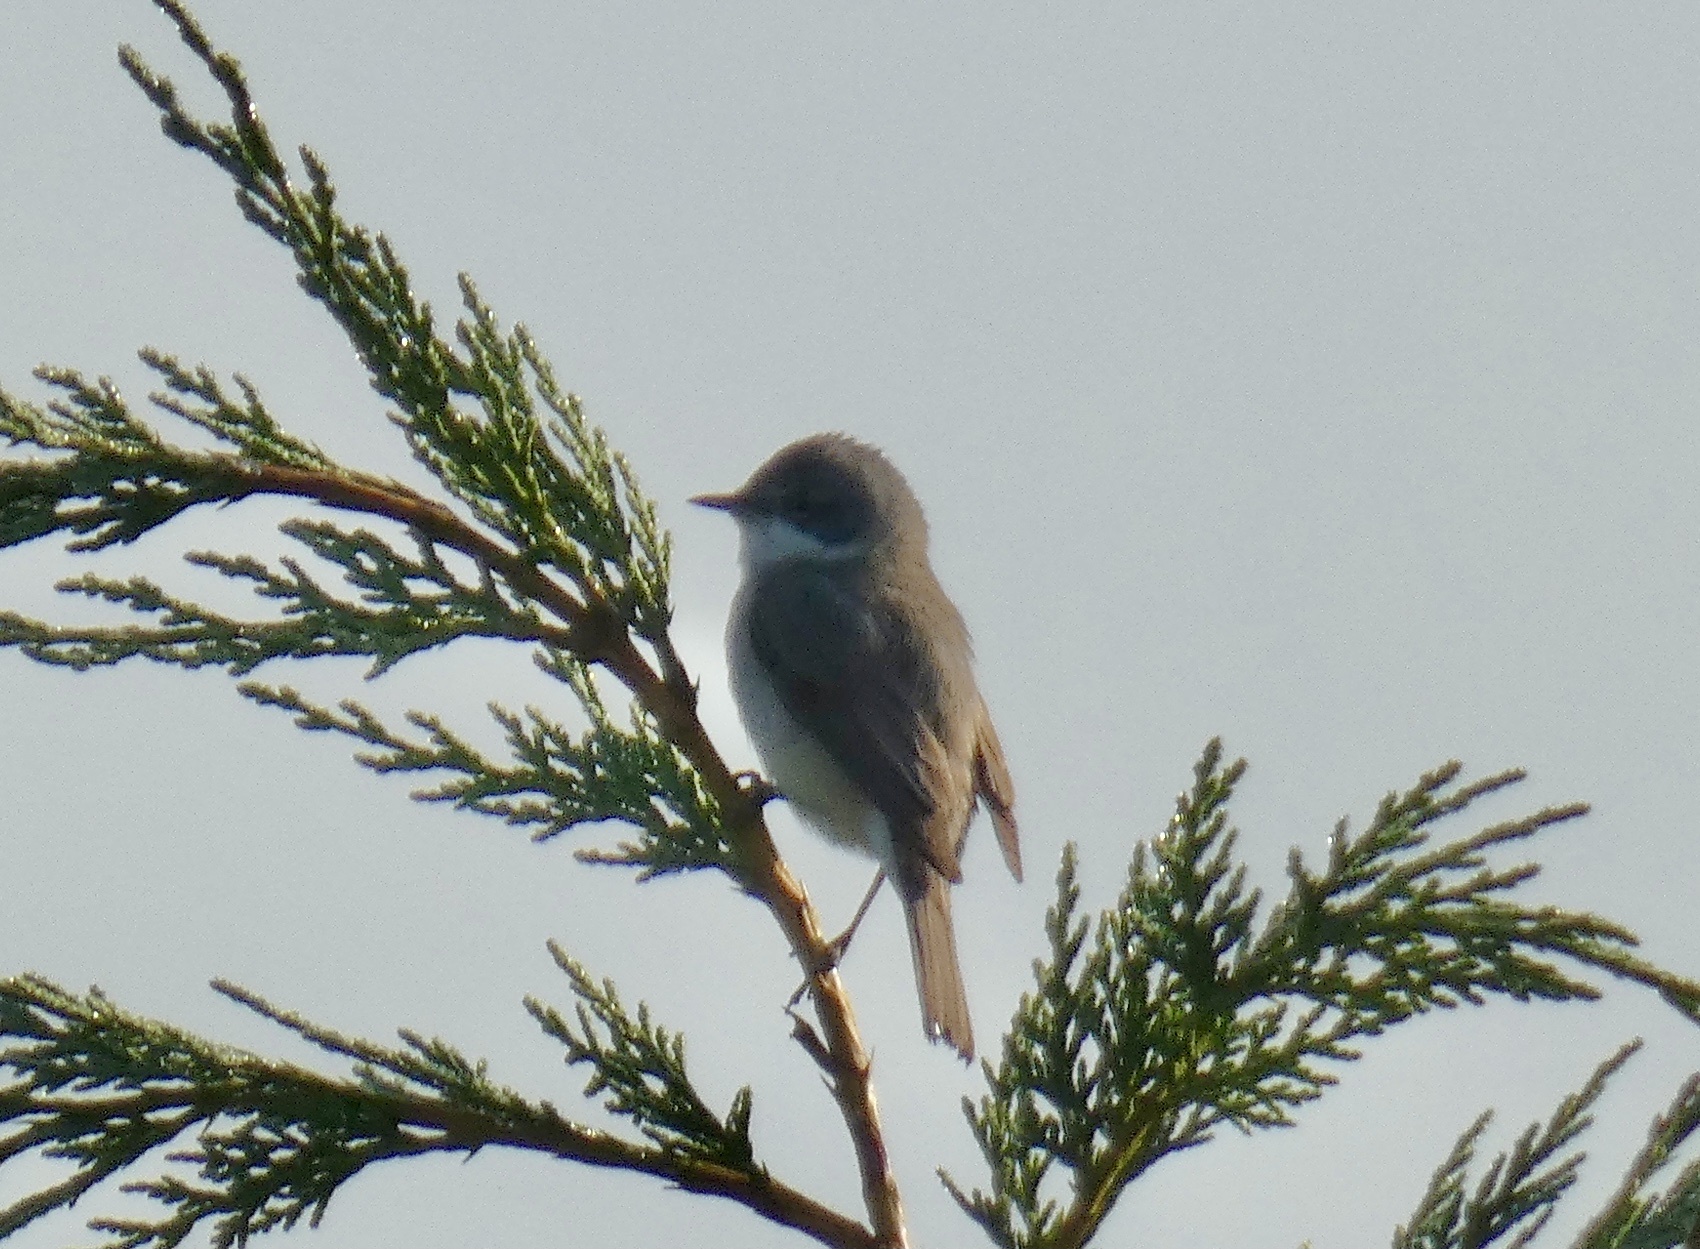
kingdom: Animalia
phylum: Chordata
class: Aves
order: Passeriformes
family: Sylviidae
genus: Sylvia
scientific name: Sylvia curruca
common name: Lesser whitethroat
